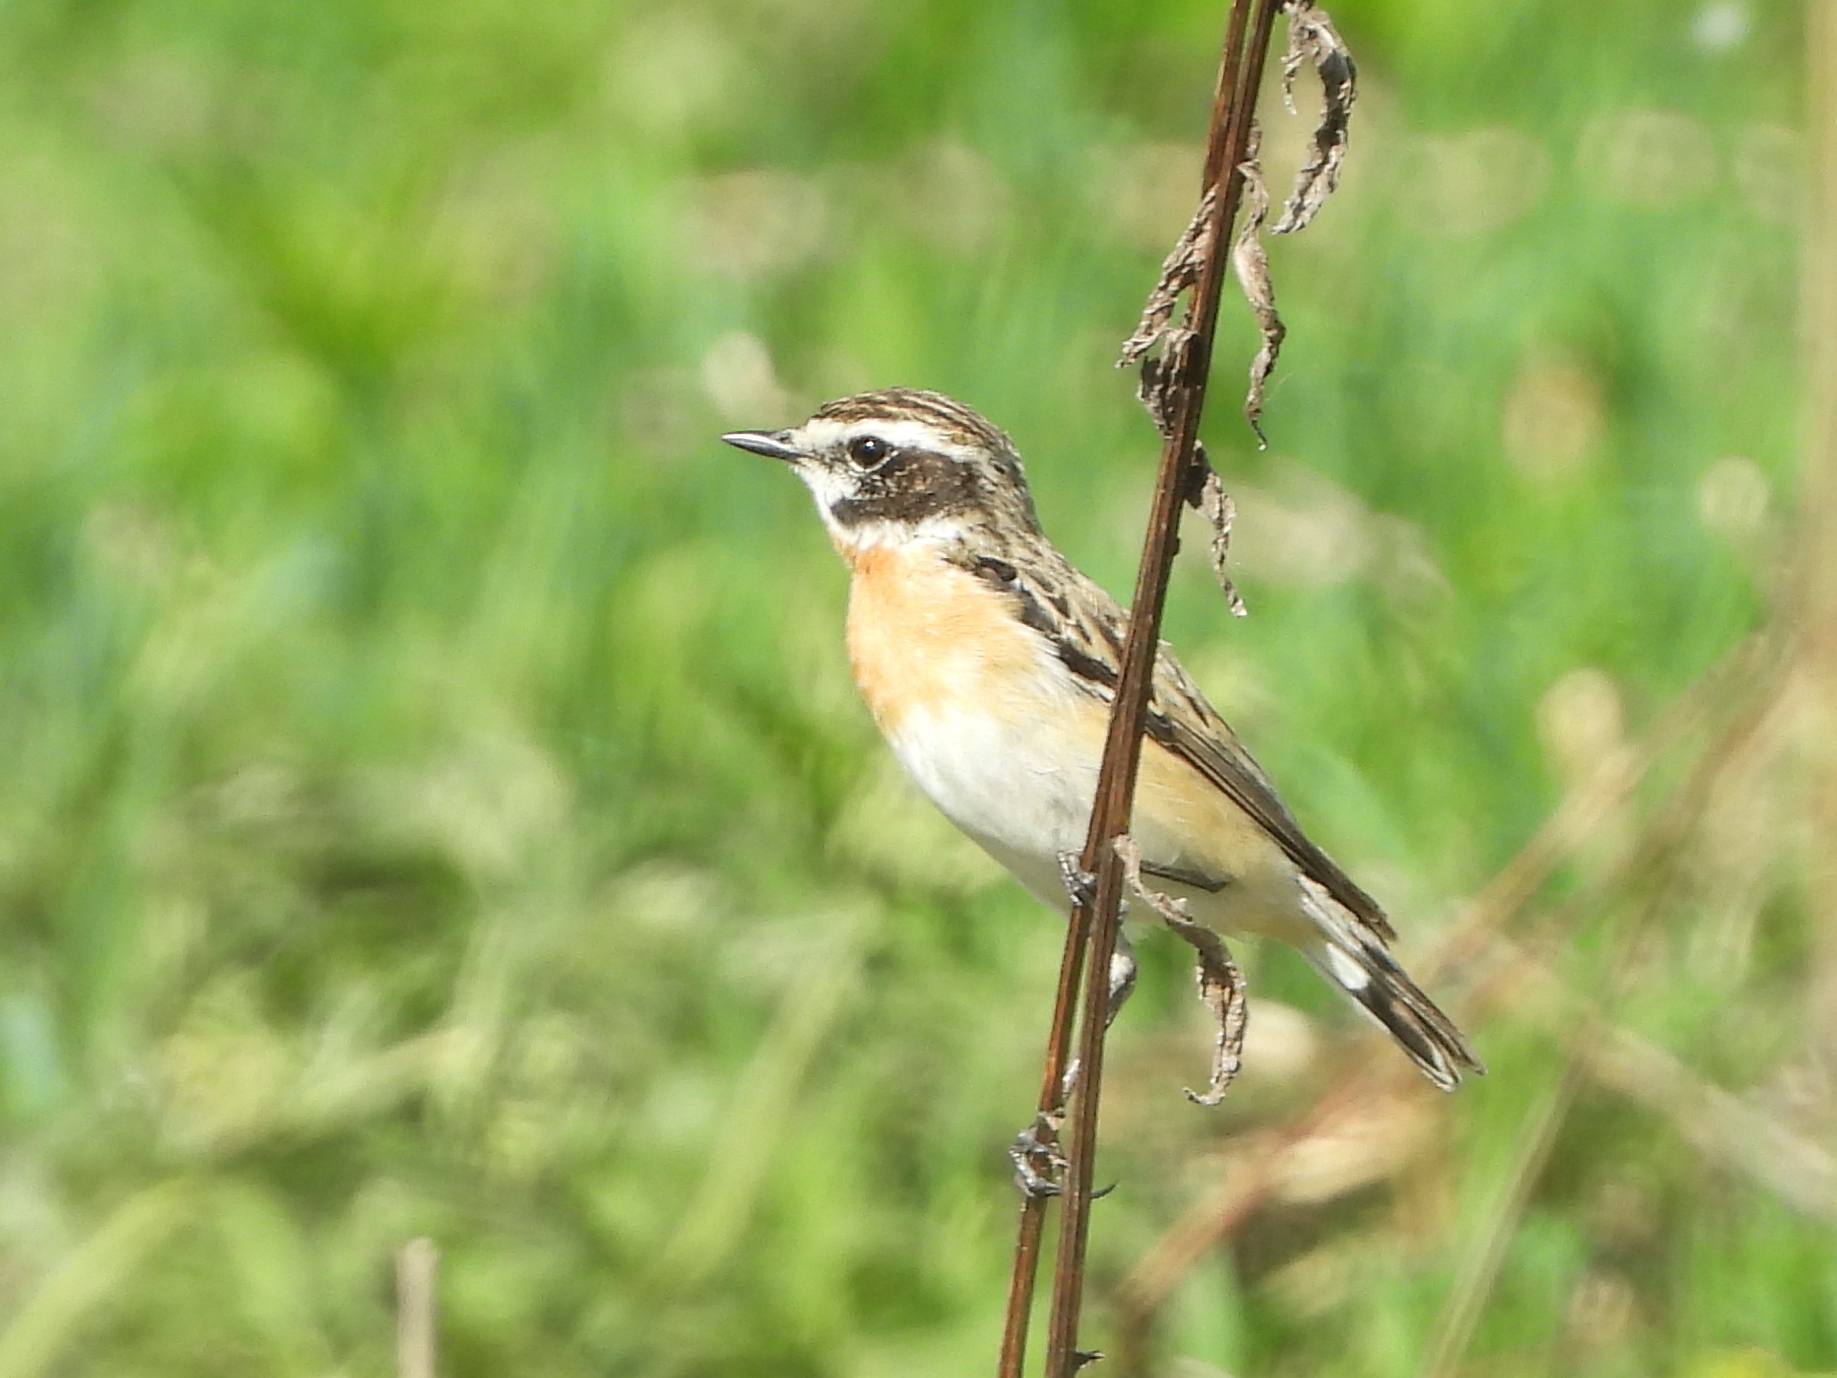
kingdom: Animalia
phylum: Chordata
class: Aves
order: Passeriformes
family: Muscicapidae
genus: Saxicola
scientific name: Saxicola rubetra
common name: Whinchat
